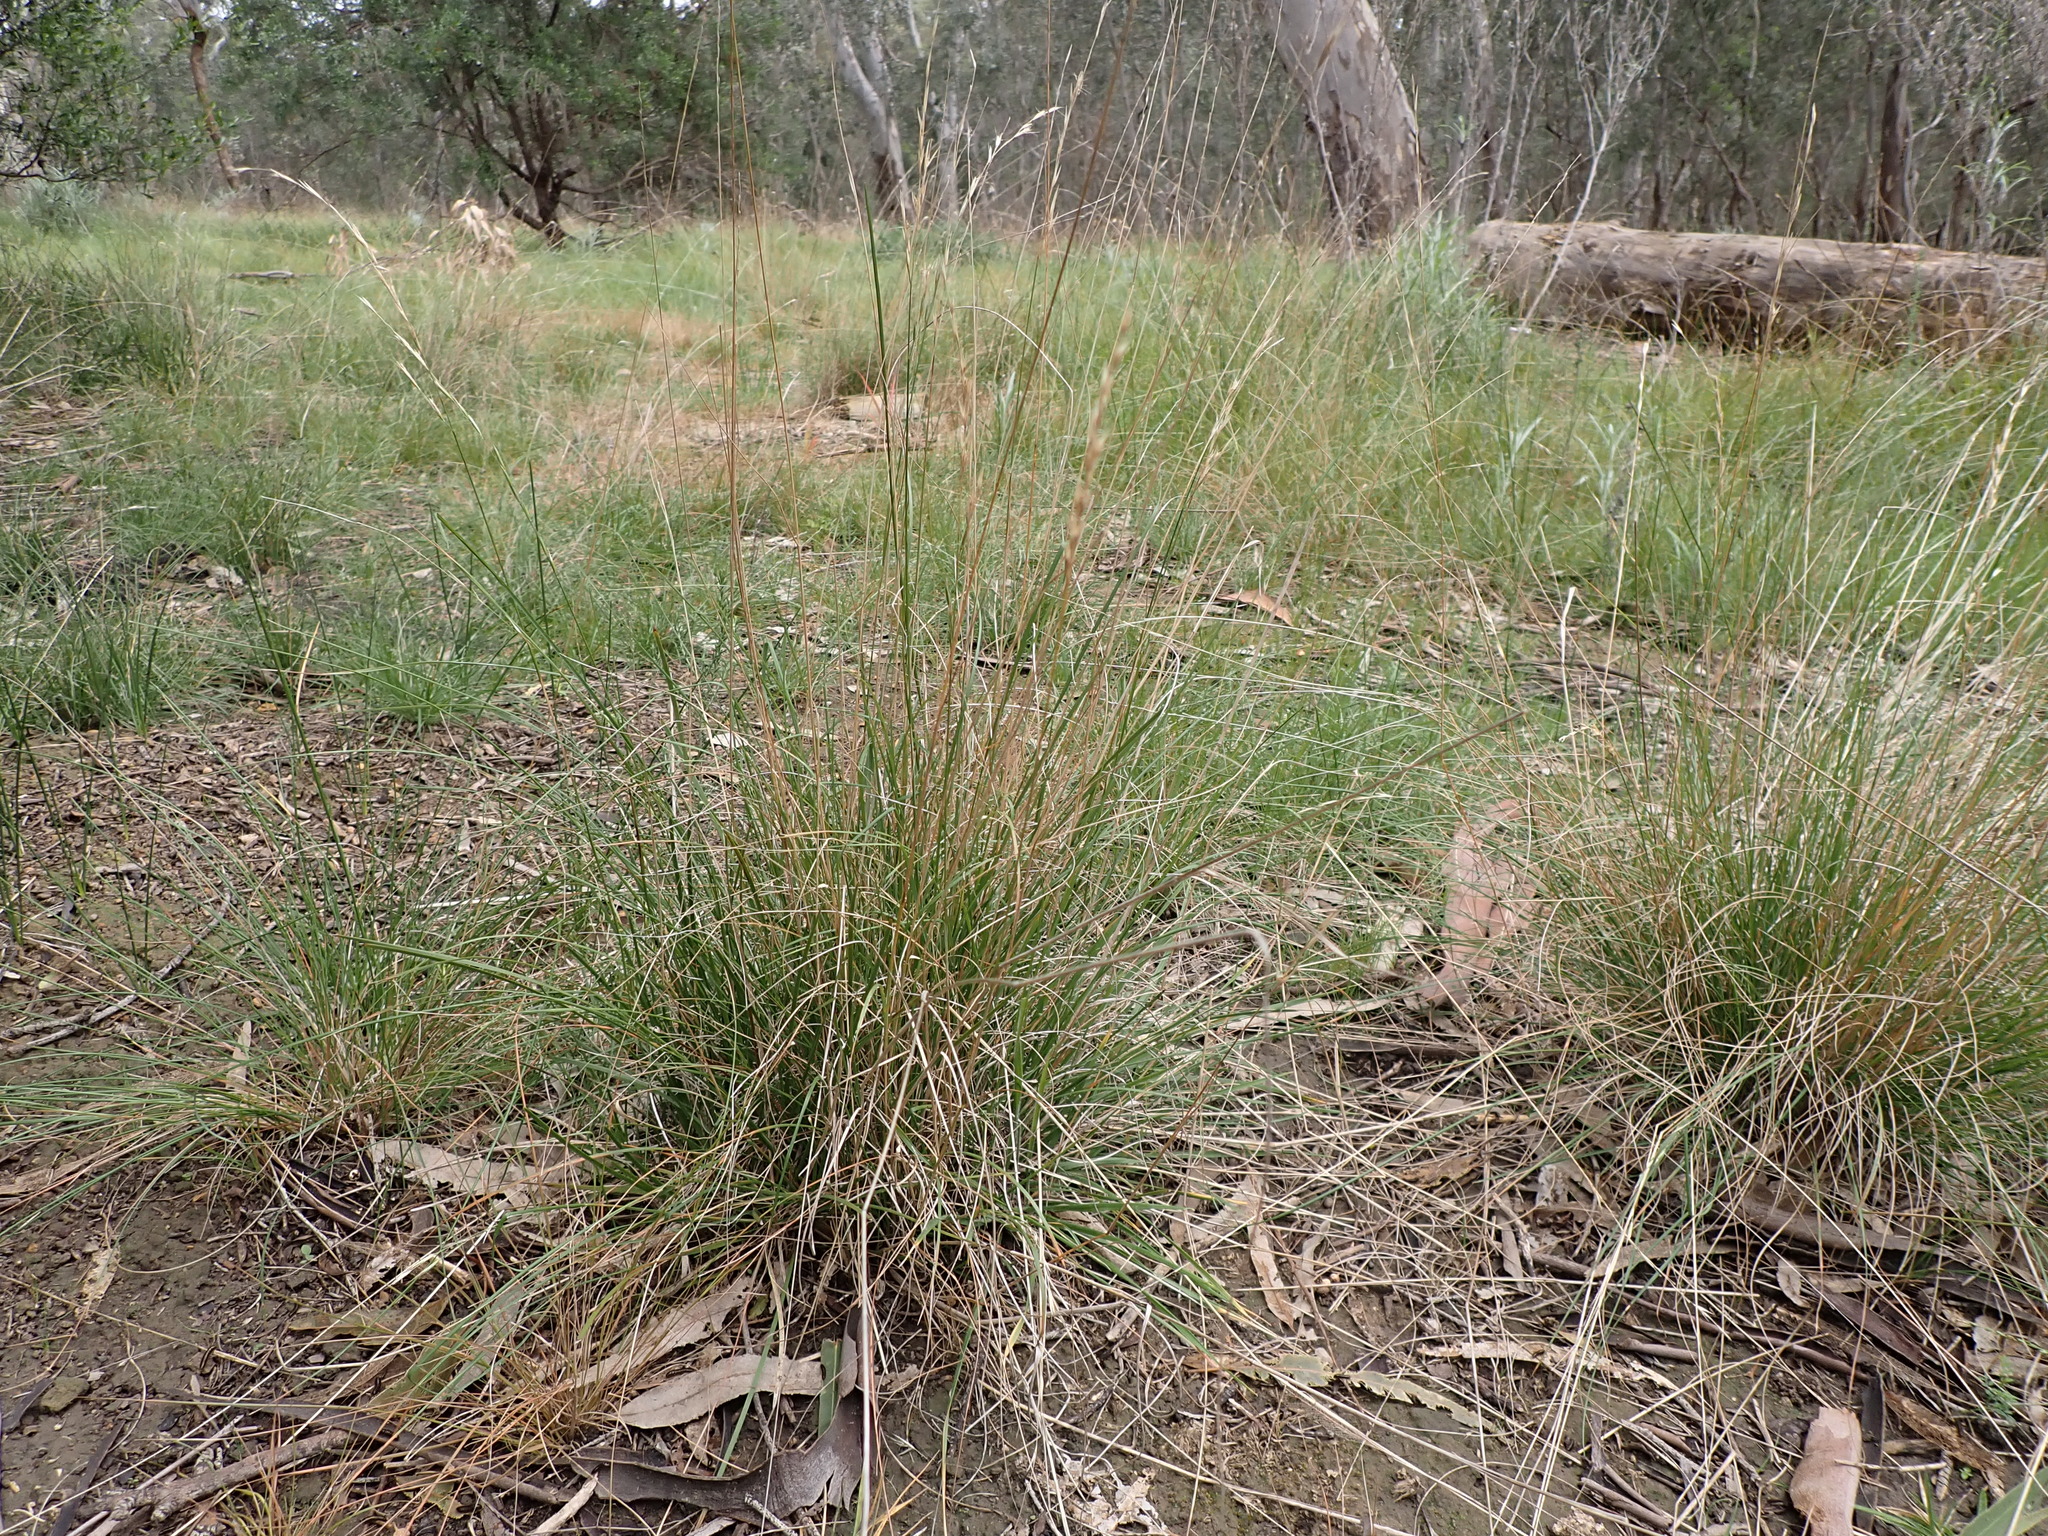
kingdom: Plantae
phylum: Tracheophyta
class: Liliopsida
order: Poales
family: Poaceae
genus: Rytidosperma
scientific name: Rytidosperma racemosum
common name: Wallaby-grass
